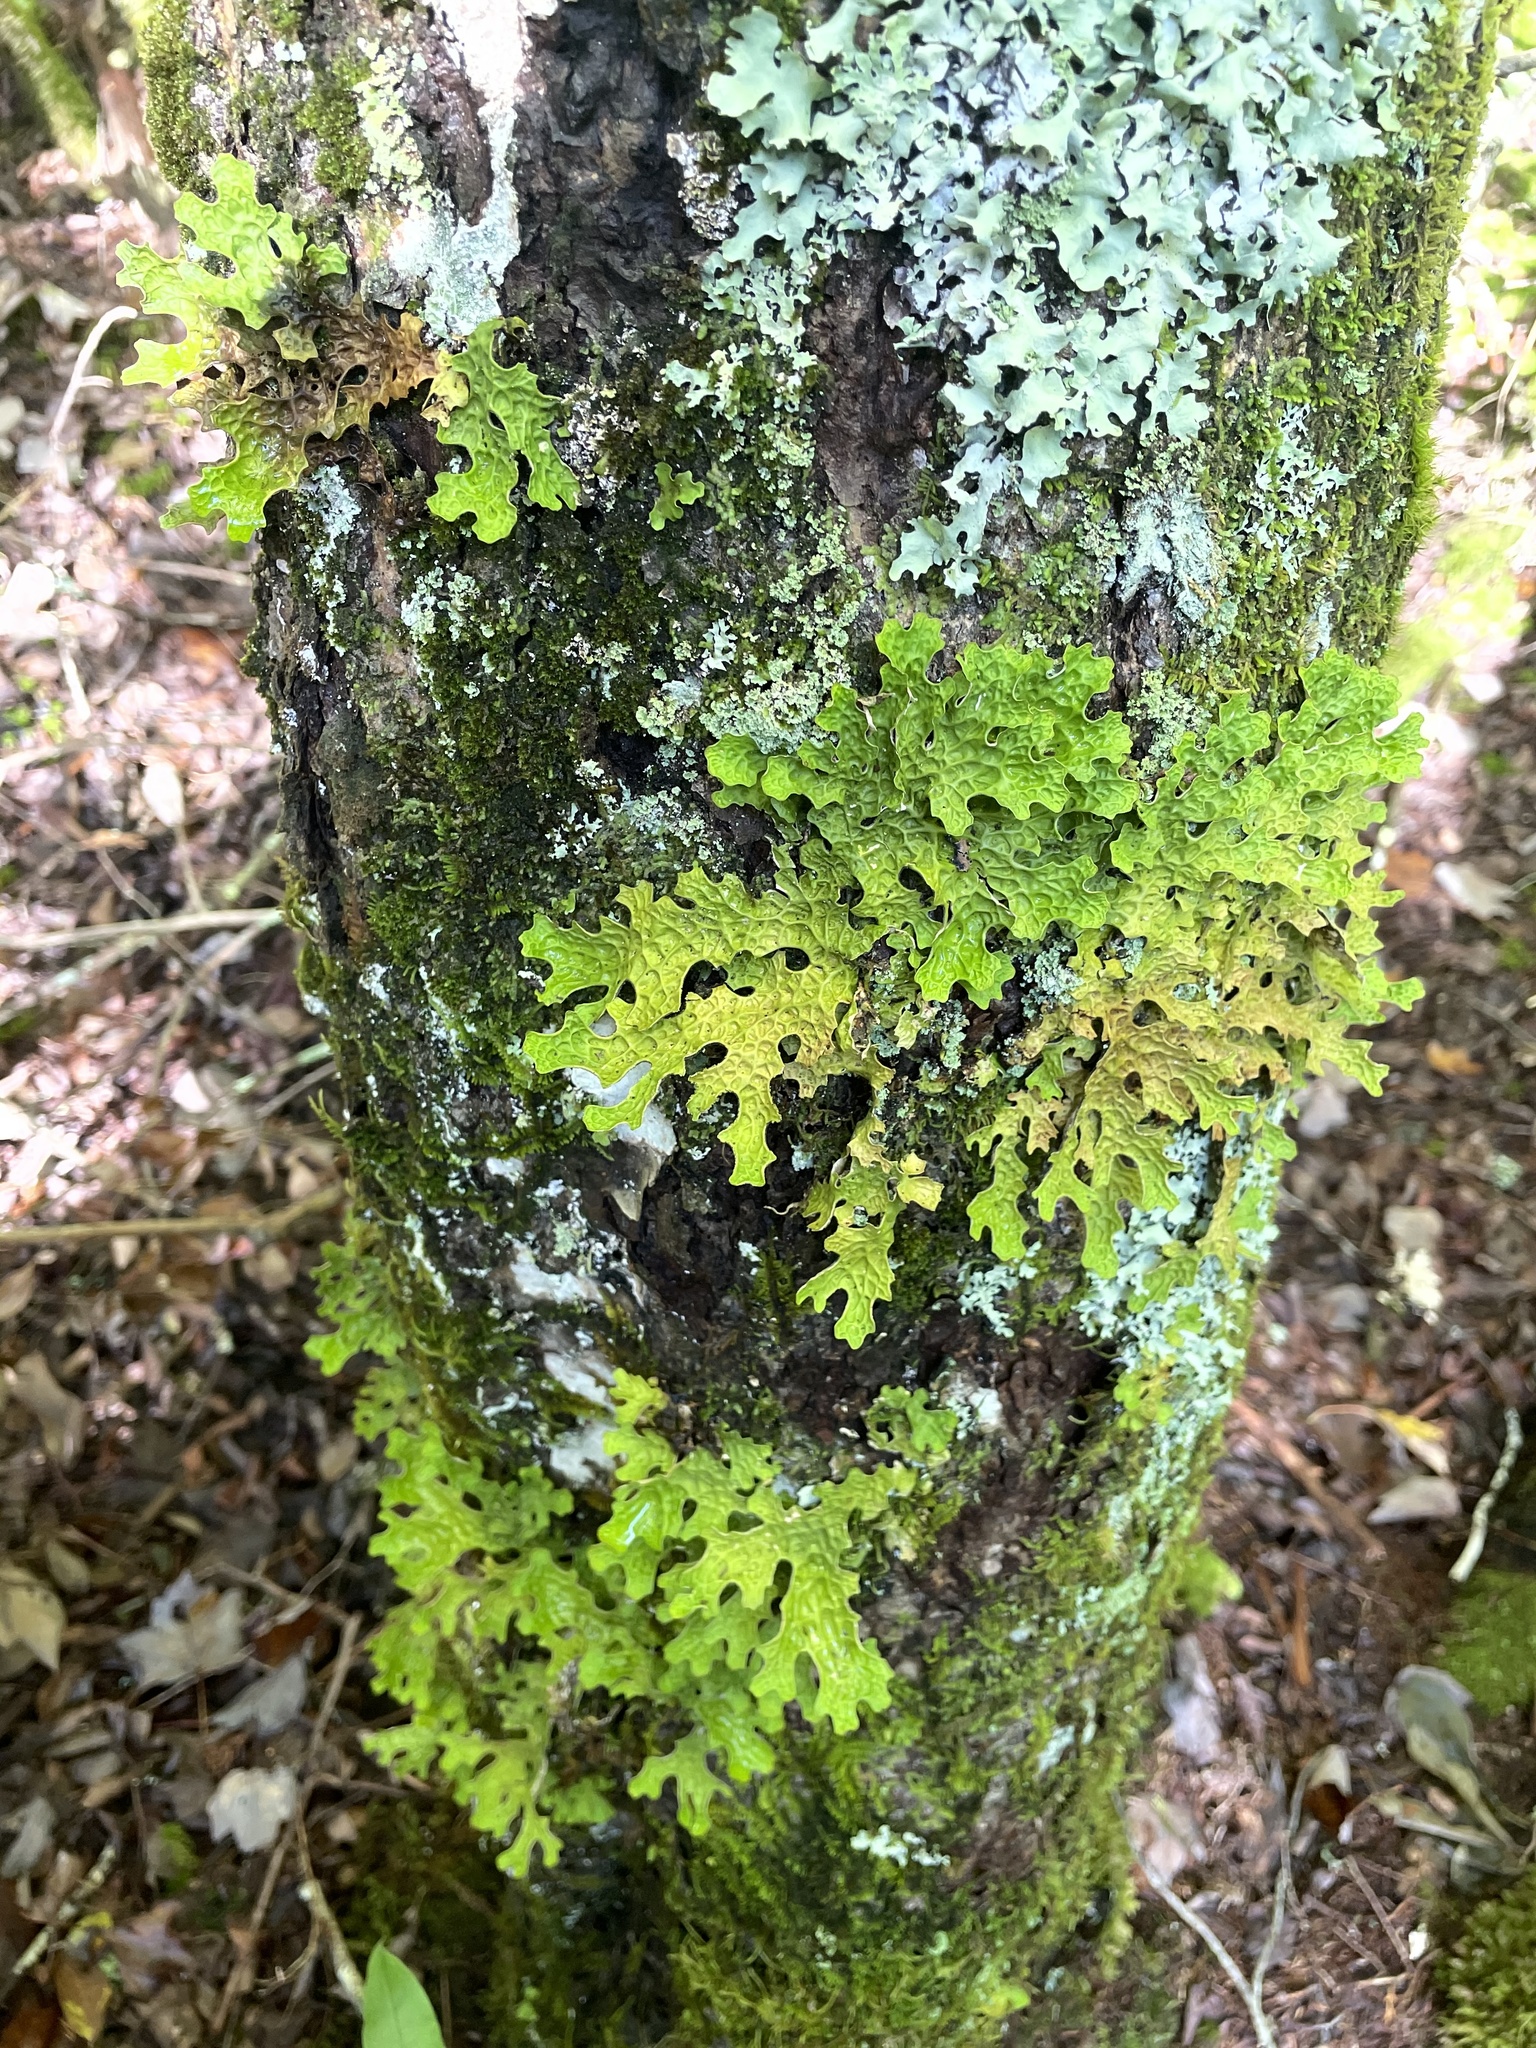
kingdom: Fungi
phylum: Ascomycota
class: Lecanoromycetes
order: Peltigerales
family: Lobariaceae
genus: Lobaria
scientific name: Lobaria pulmonaria
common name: Lungwort
